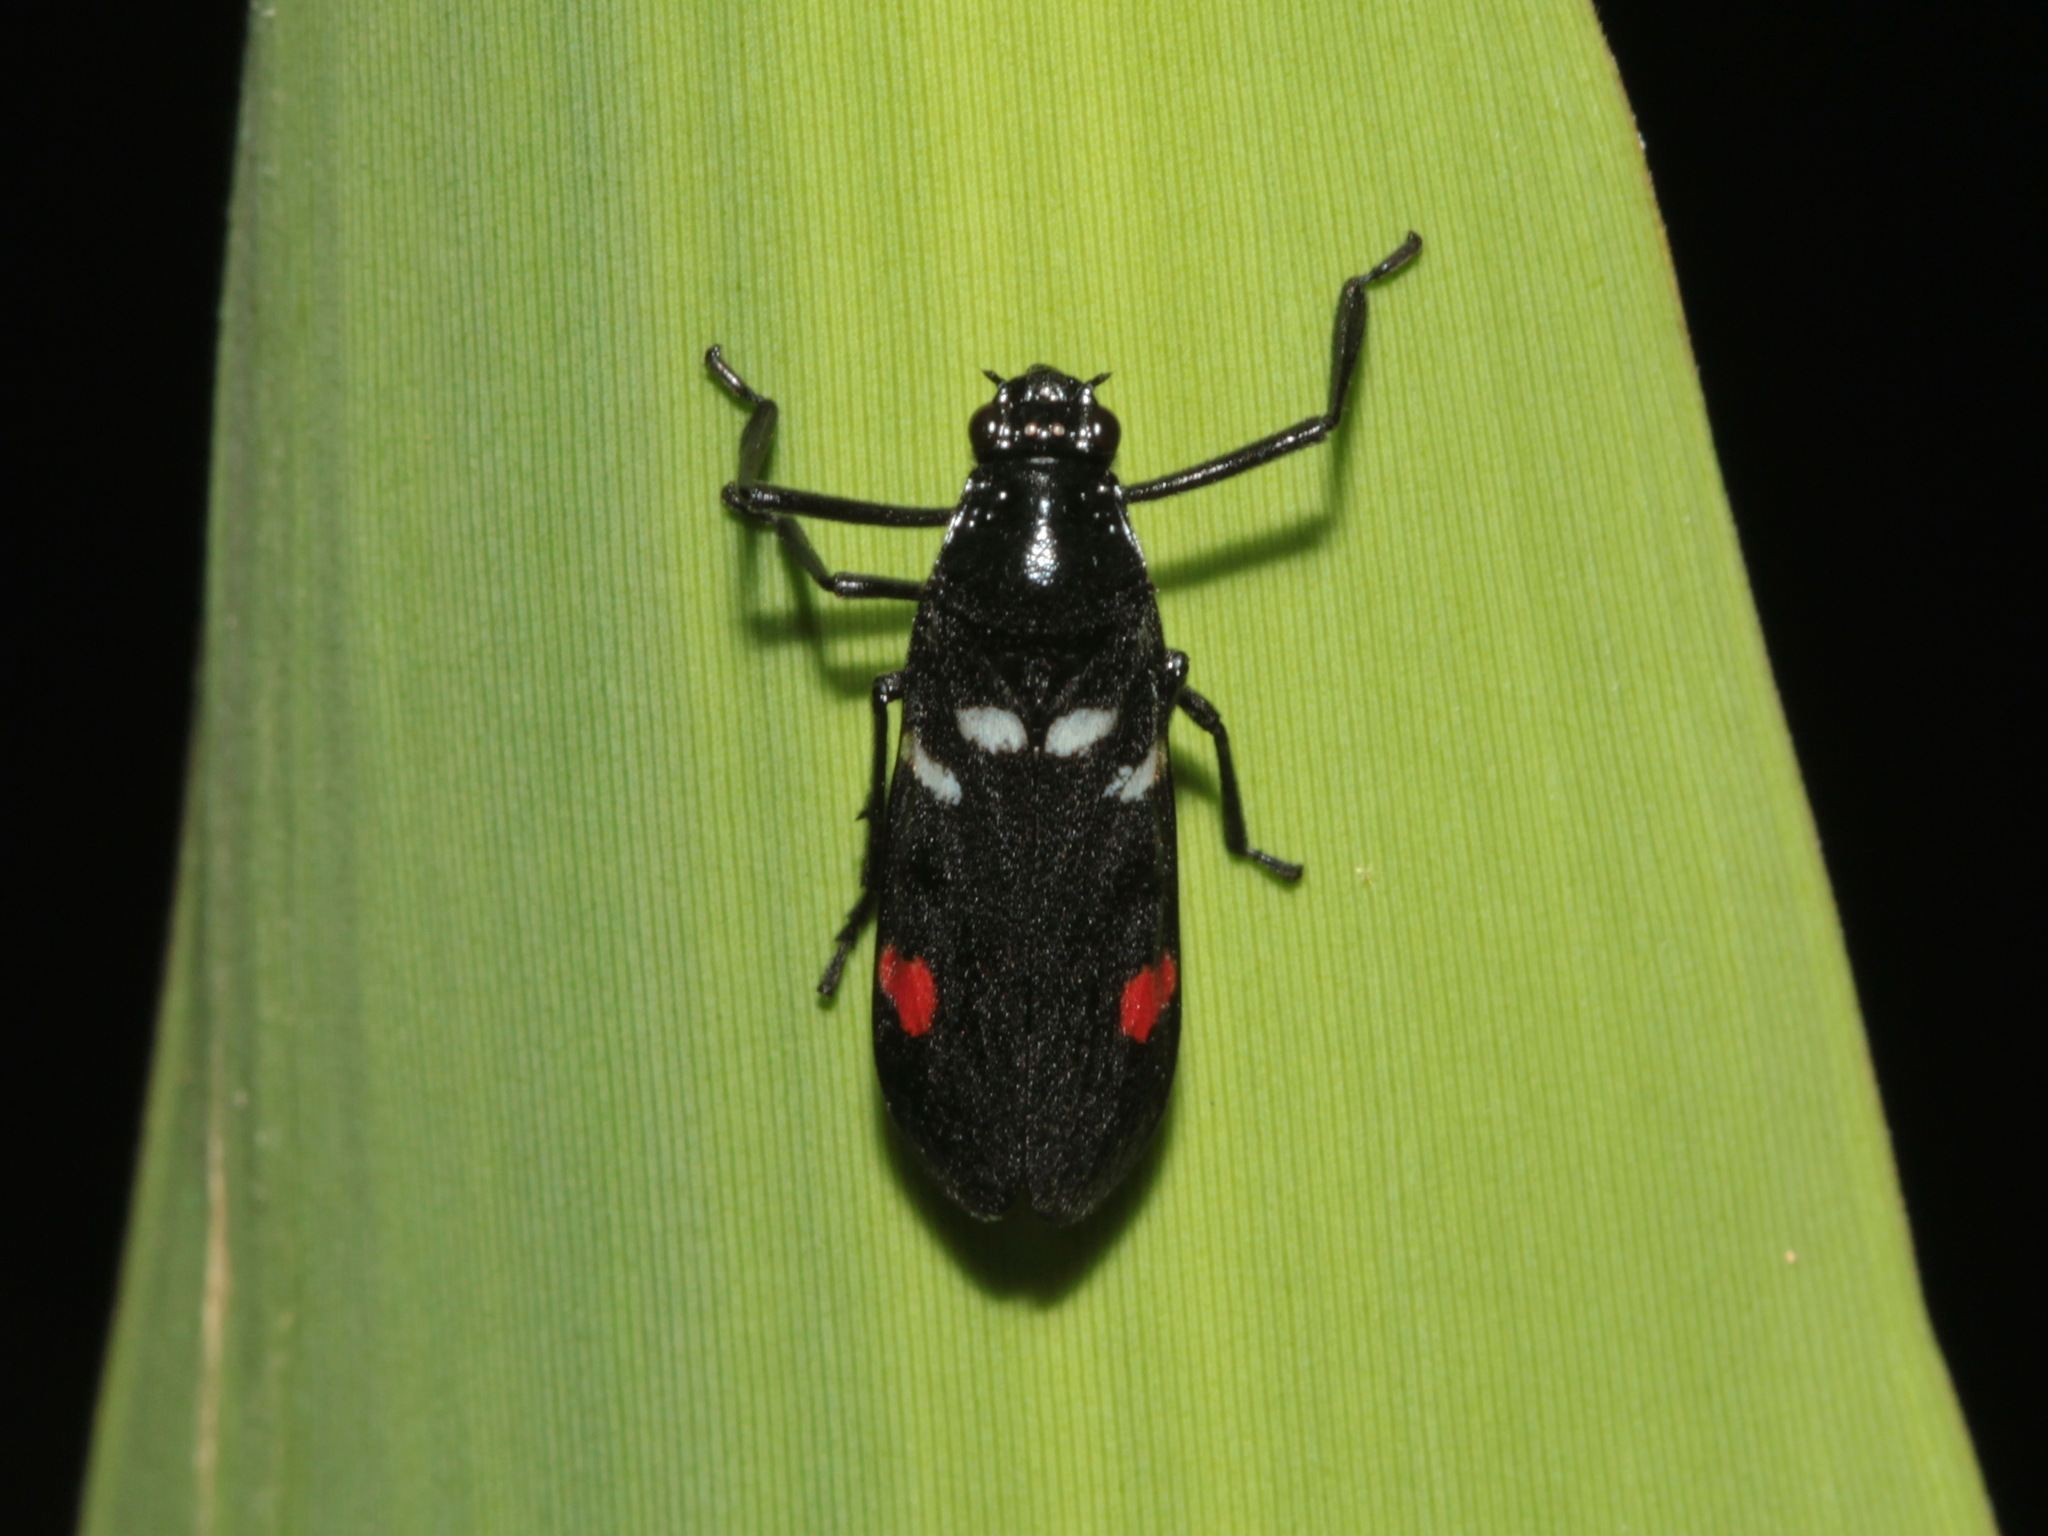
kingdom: Animalia
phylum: Arthropoda
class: Insecta
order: Hemiptera
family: Cercopidae
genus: Callitettix
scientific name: Callitettix versicolor
